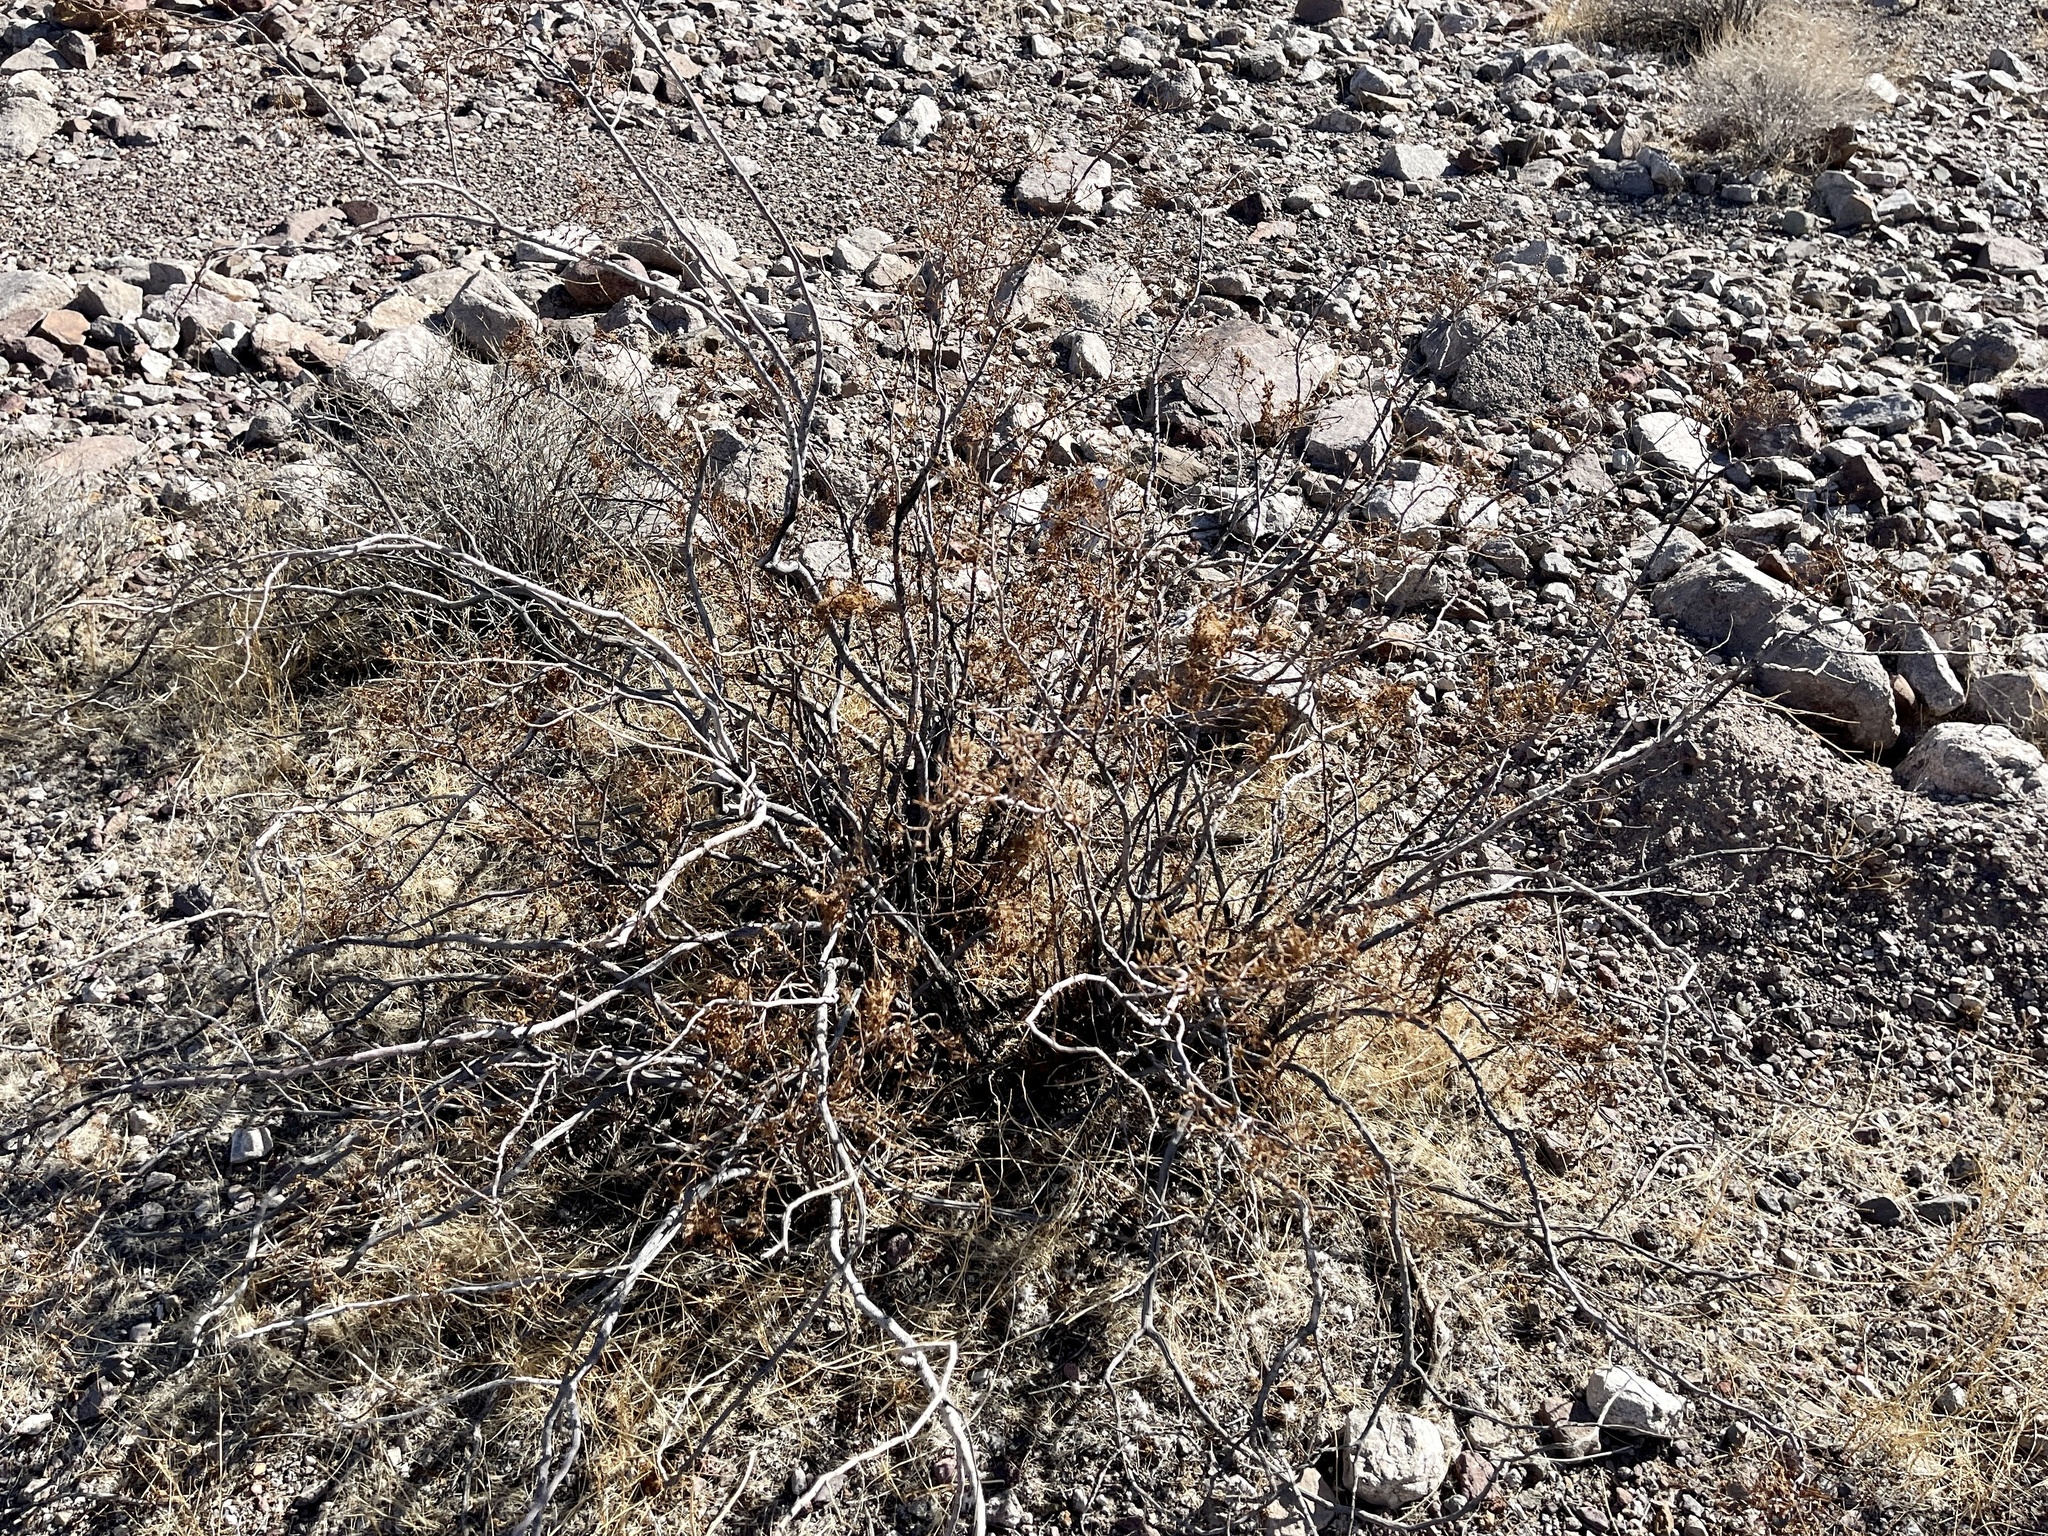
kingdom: Plantae
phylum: Tracheophyta
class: Magnoliopsida
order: Zygophyllales
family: Zygophyllaceae
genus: Larrea
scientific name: Larrea tridentata
